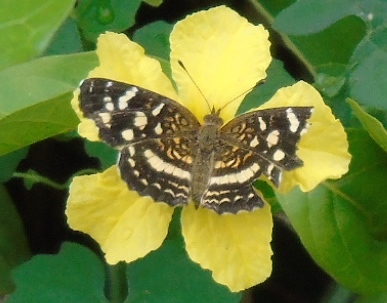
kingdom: Animalia
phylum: Arthropoda
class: Insecta
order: Lepidoptera
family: Nymphalidae
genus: Anthanassa
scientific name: Anthanassa tulcis
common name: Pale-banded crescent
